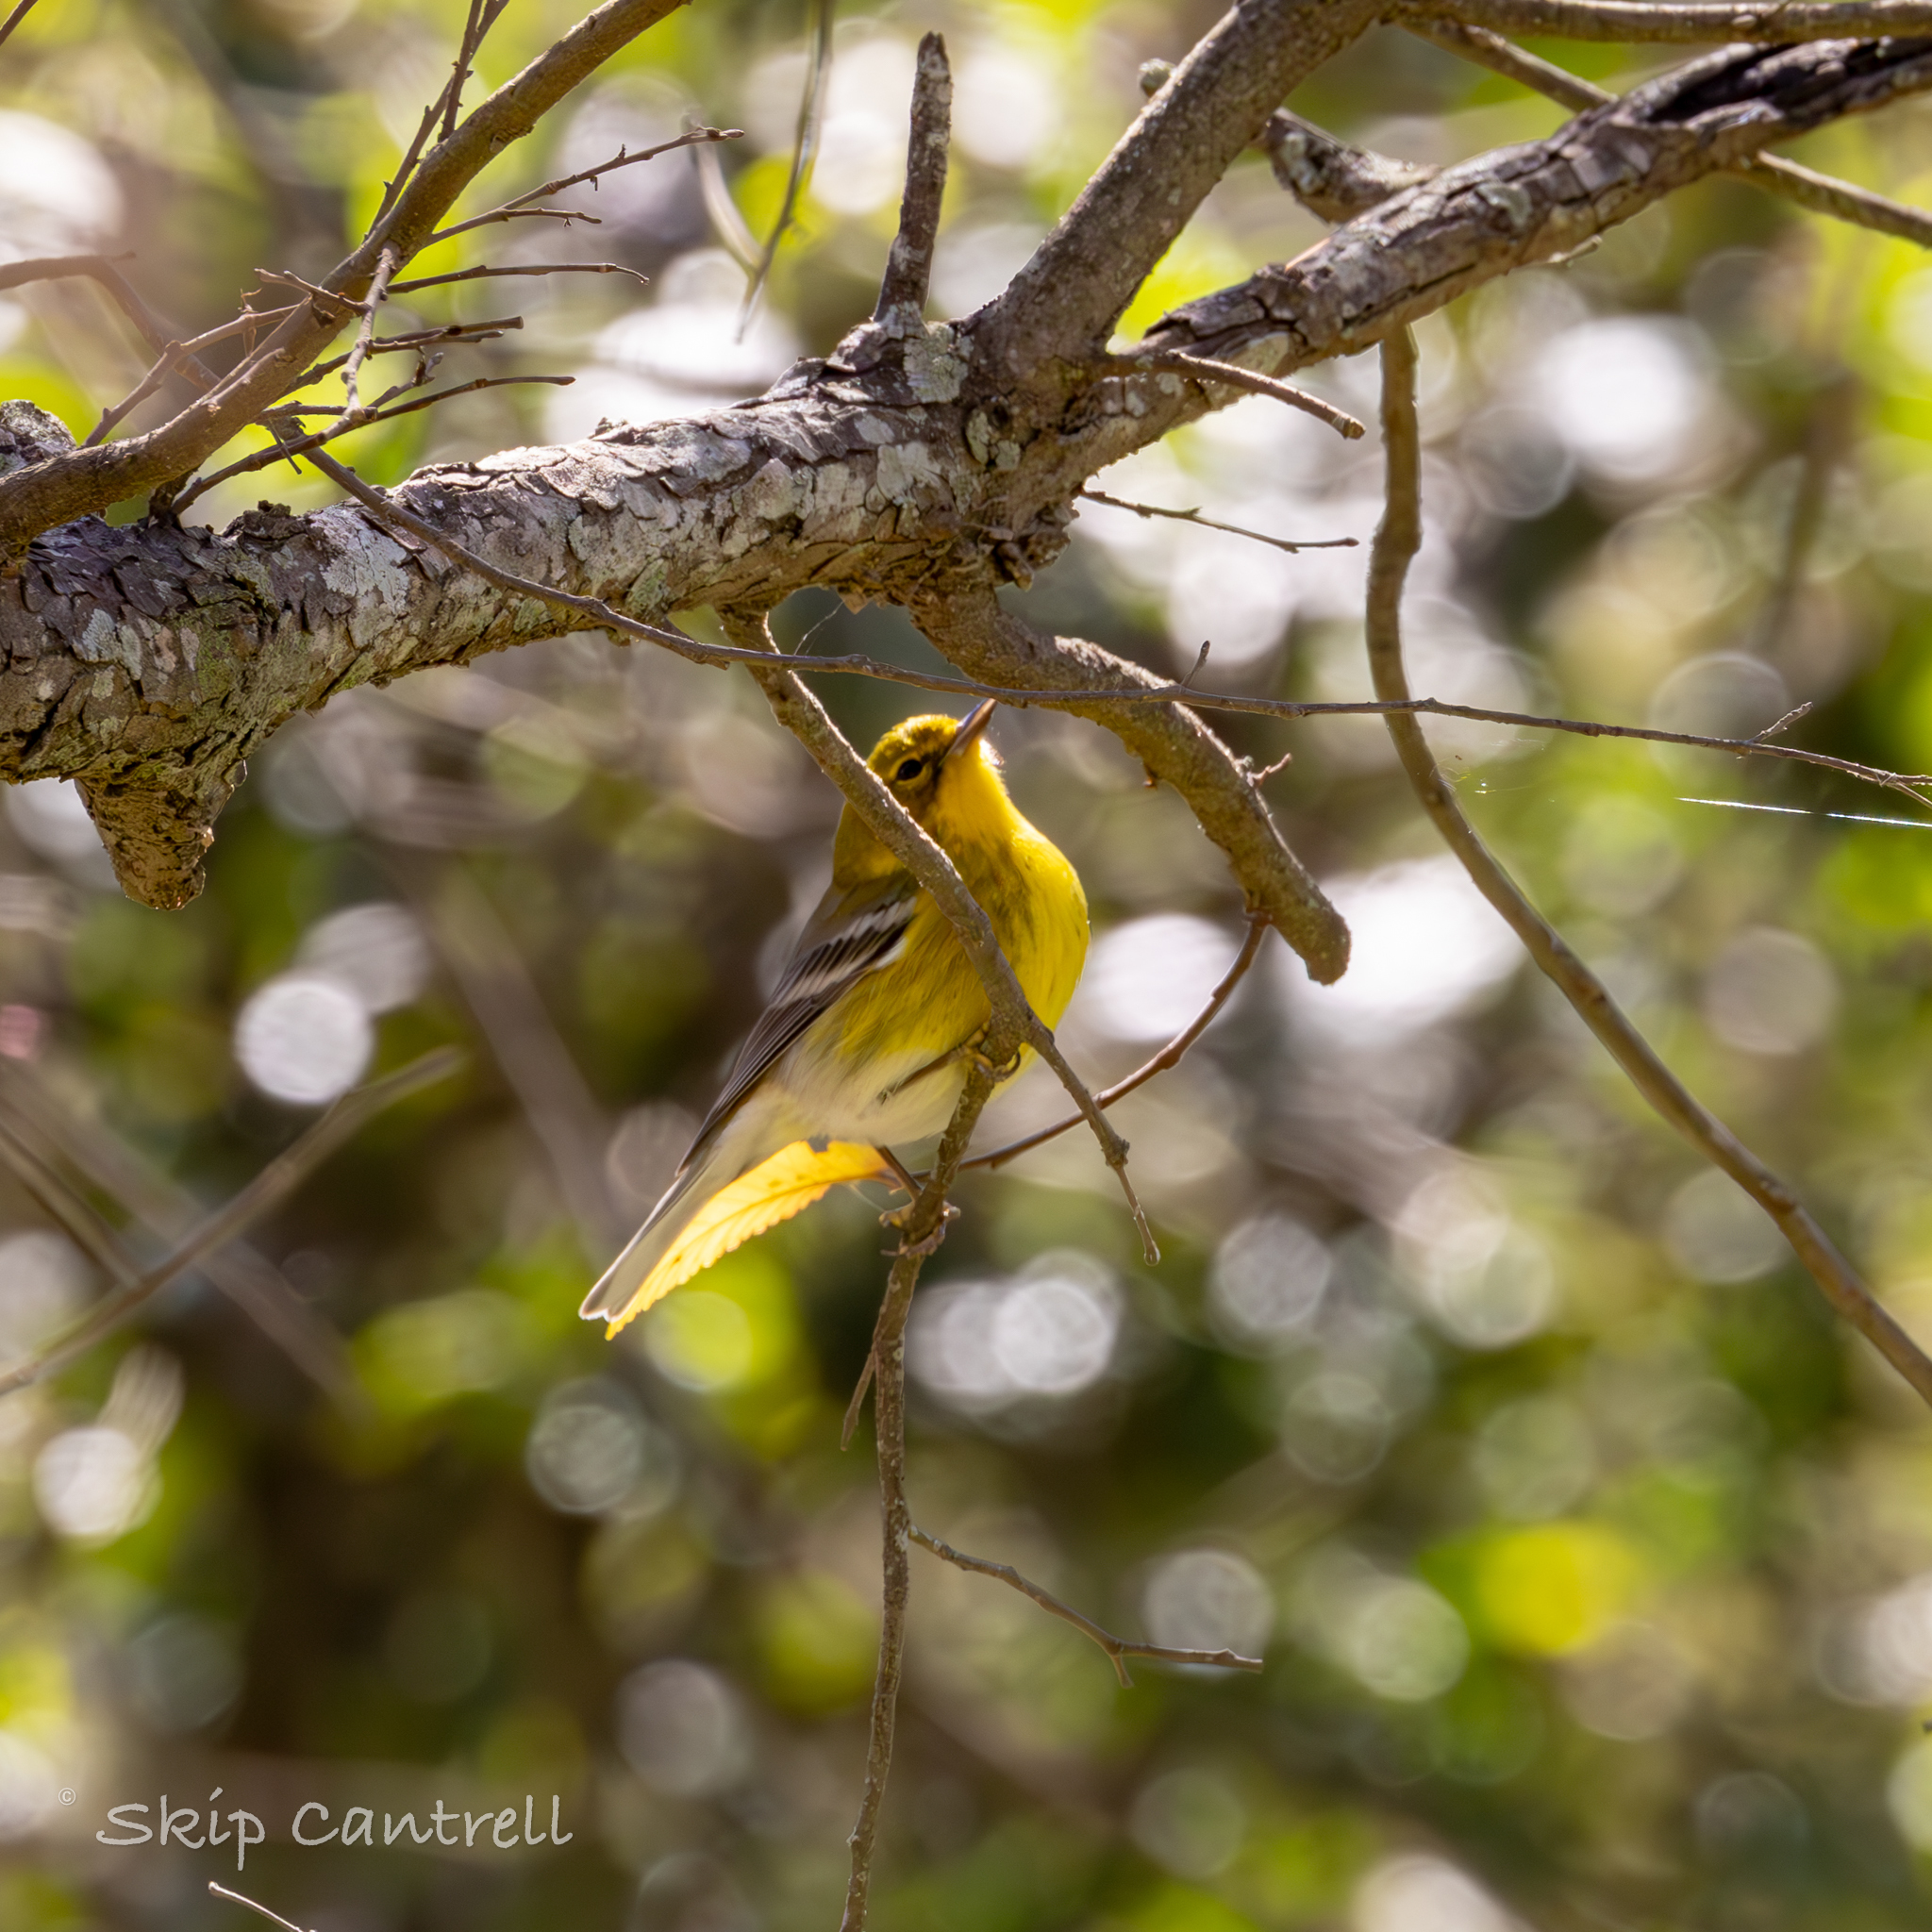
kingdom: Animalia
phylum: Chordata
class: Aves
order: Passeriformes
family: Parulidae
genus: Setophaga
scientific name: Setophaga pinus
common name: Pine warbler
